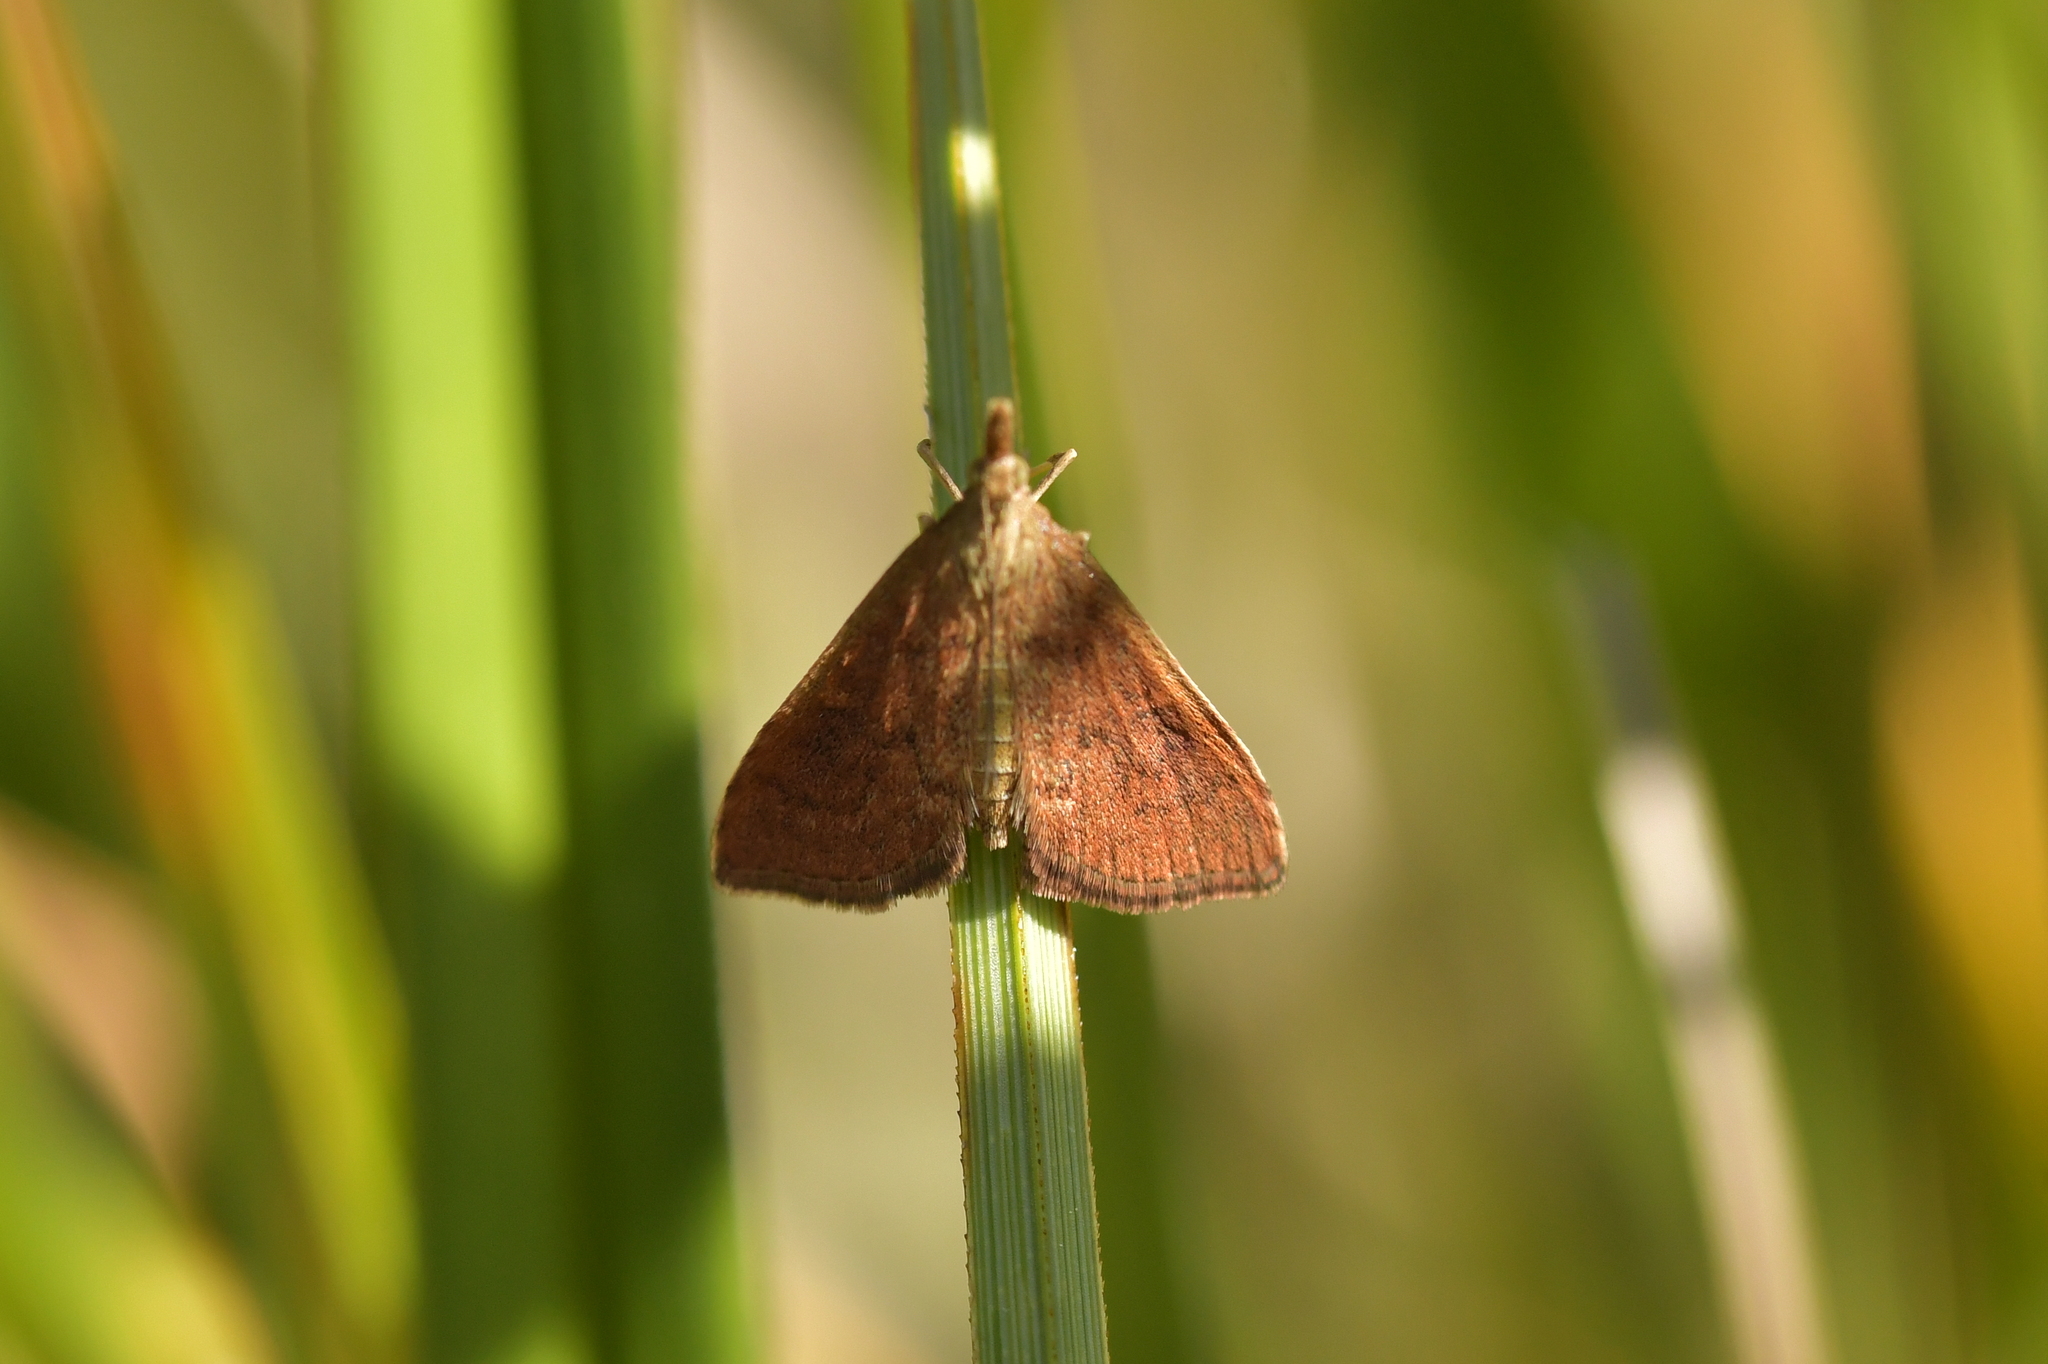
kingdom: Animalia
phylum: Arthropoda
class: Insecta
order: Lepidoptera
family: Crambidae
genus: Udea
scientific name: Udea Mnesictena flavidalis
